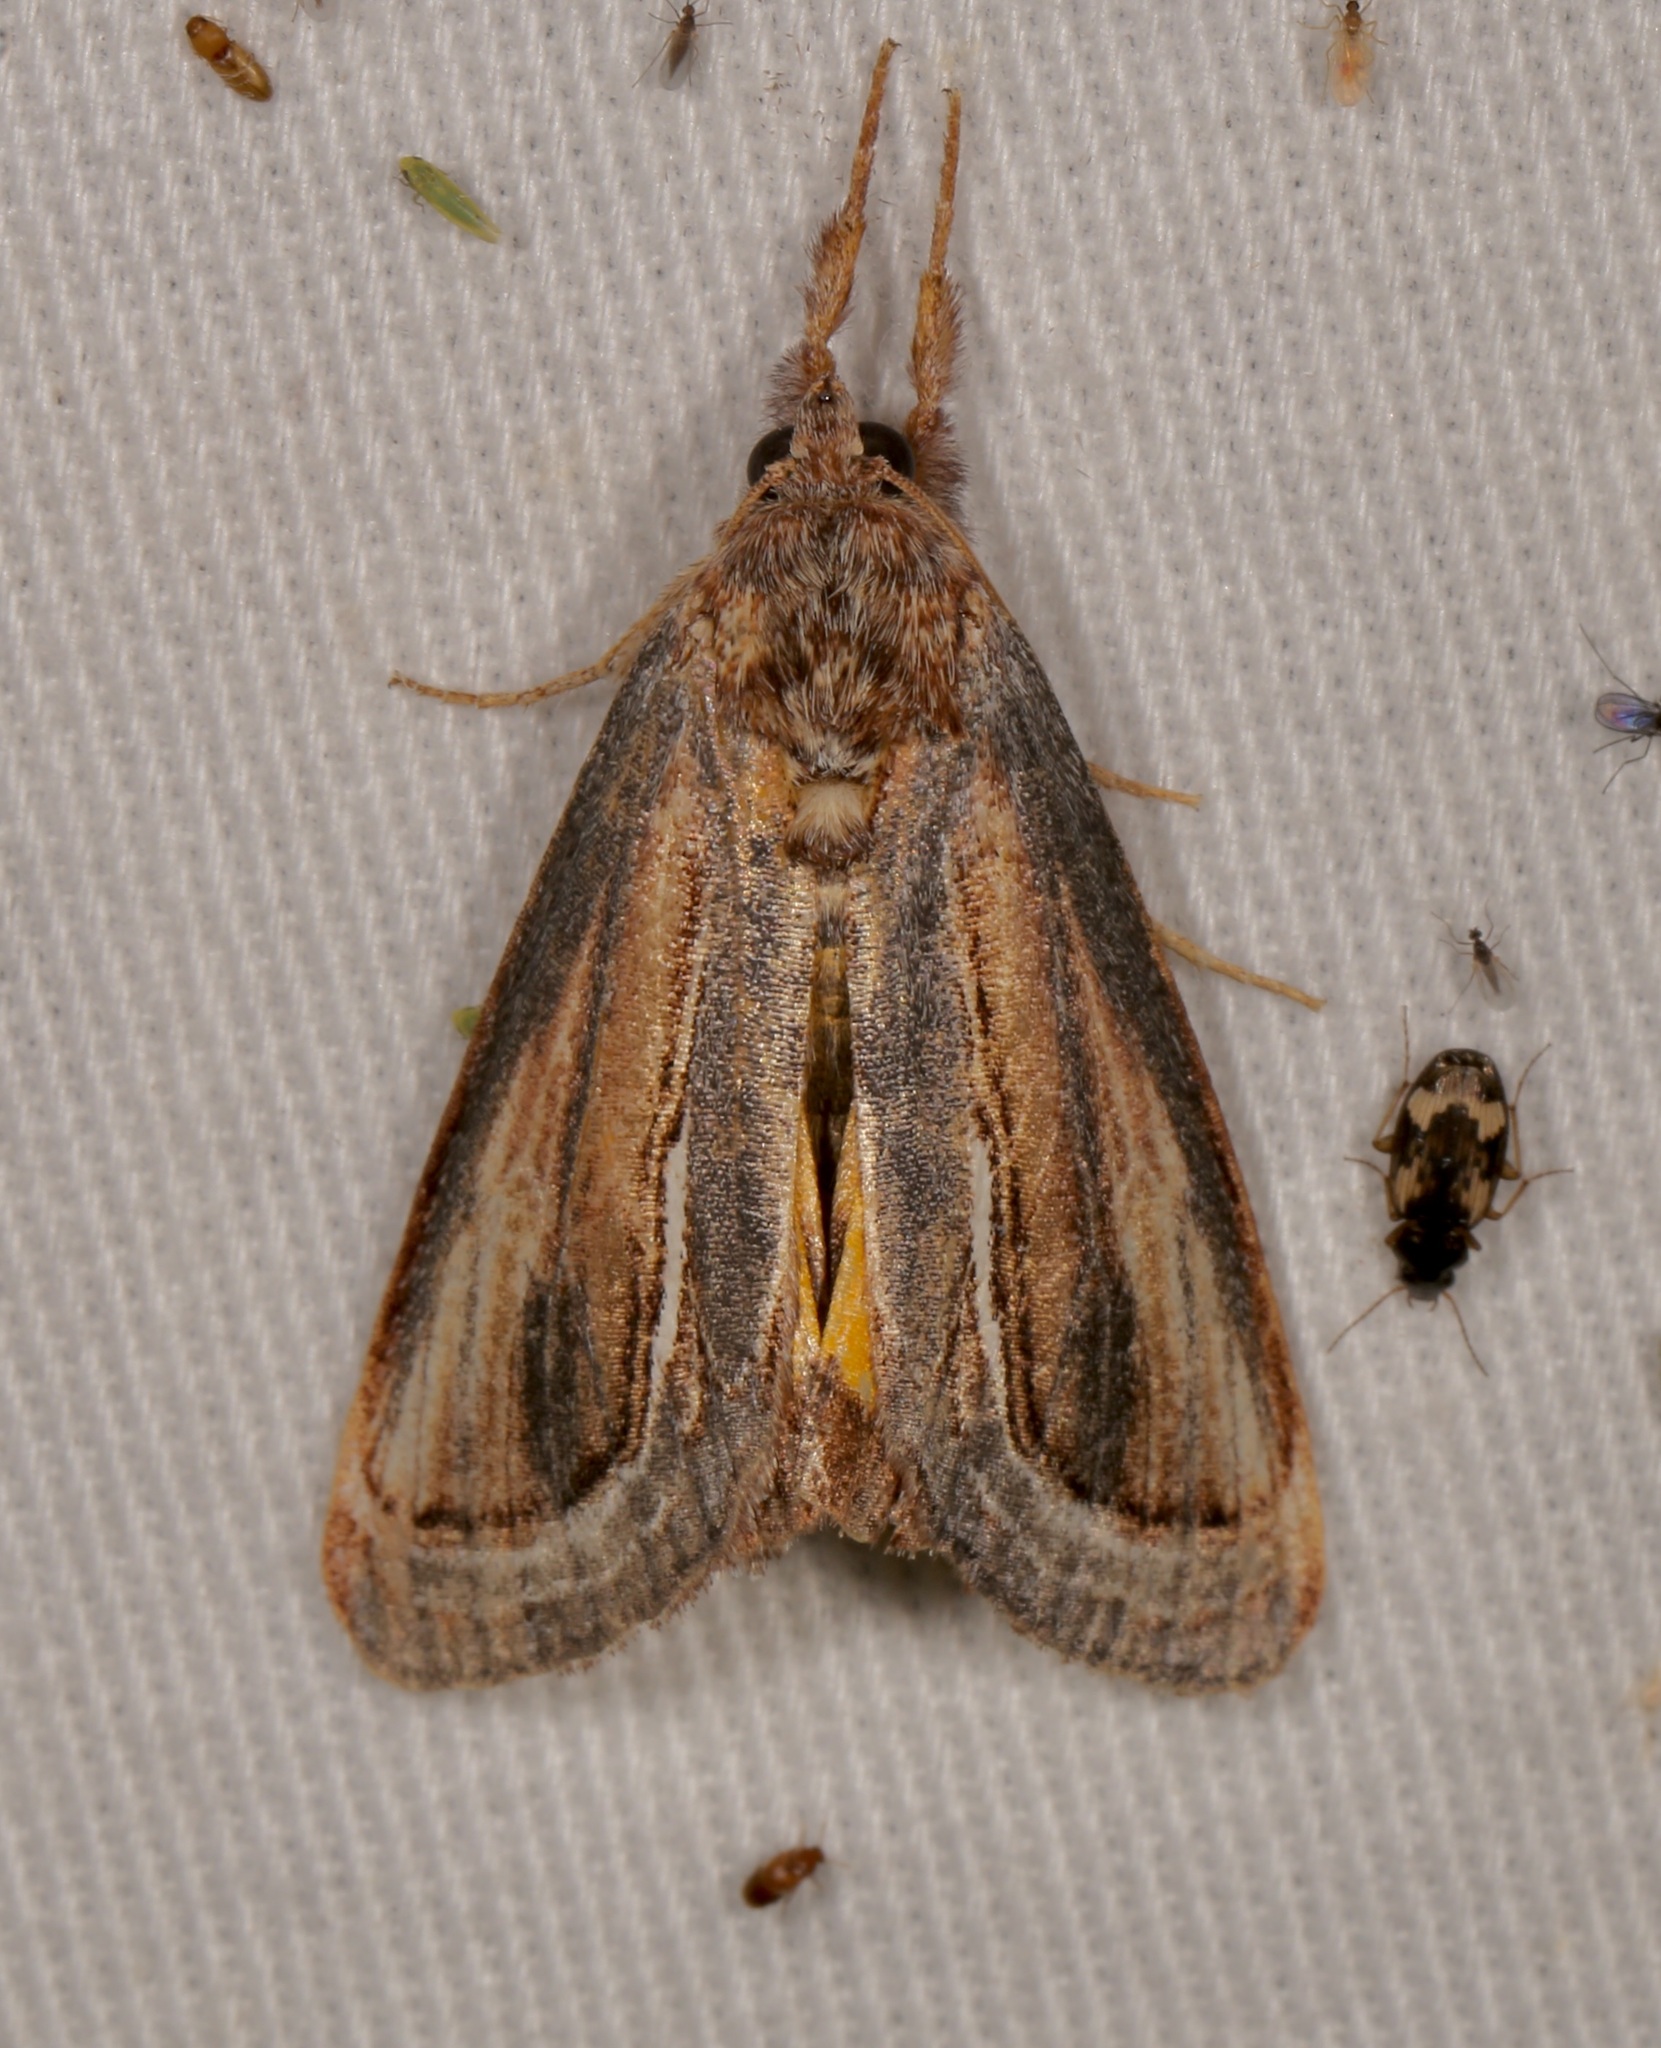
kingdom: Animalia
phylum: Arthropoda
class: Insecta
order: Lepidoptera
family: Noctuidae
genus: Gerrodes
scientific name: Gerrodes minatea
